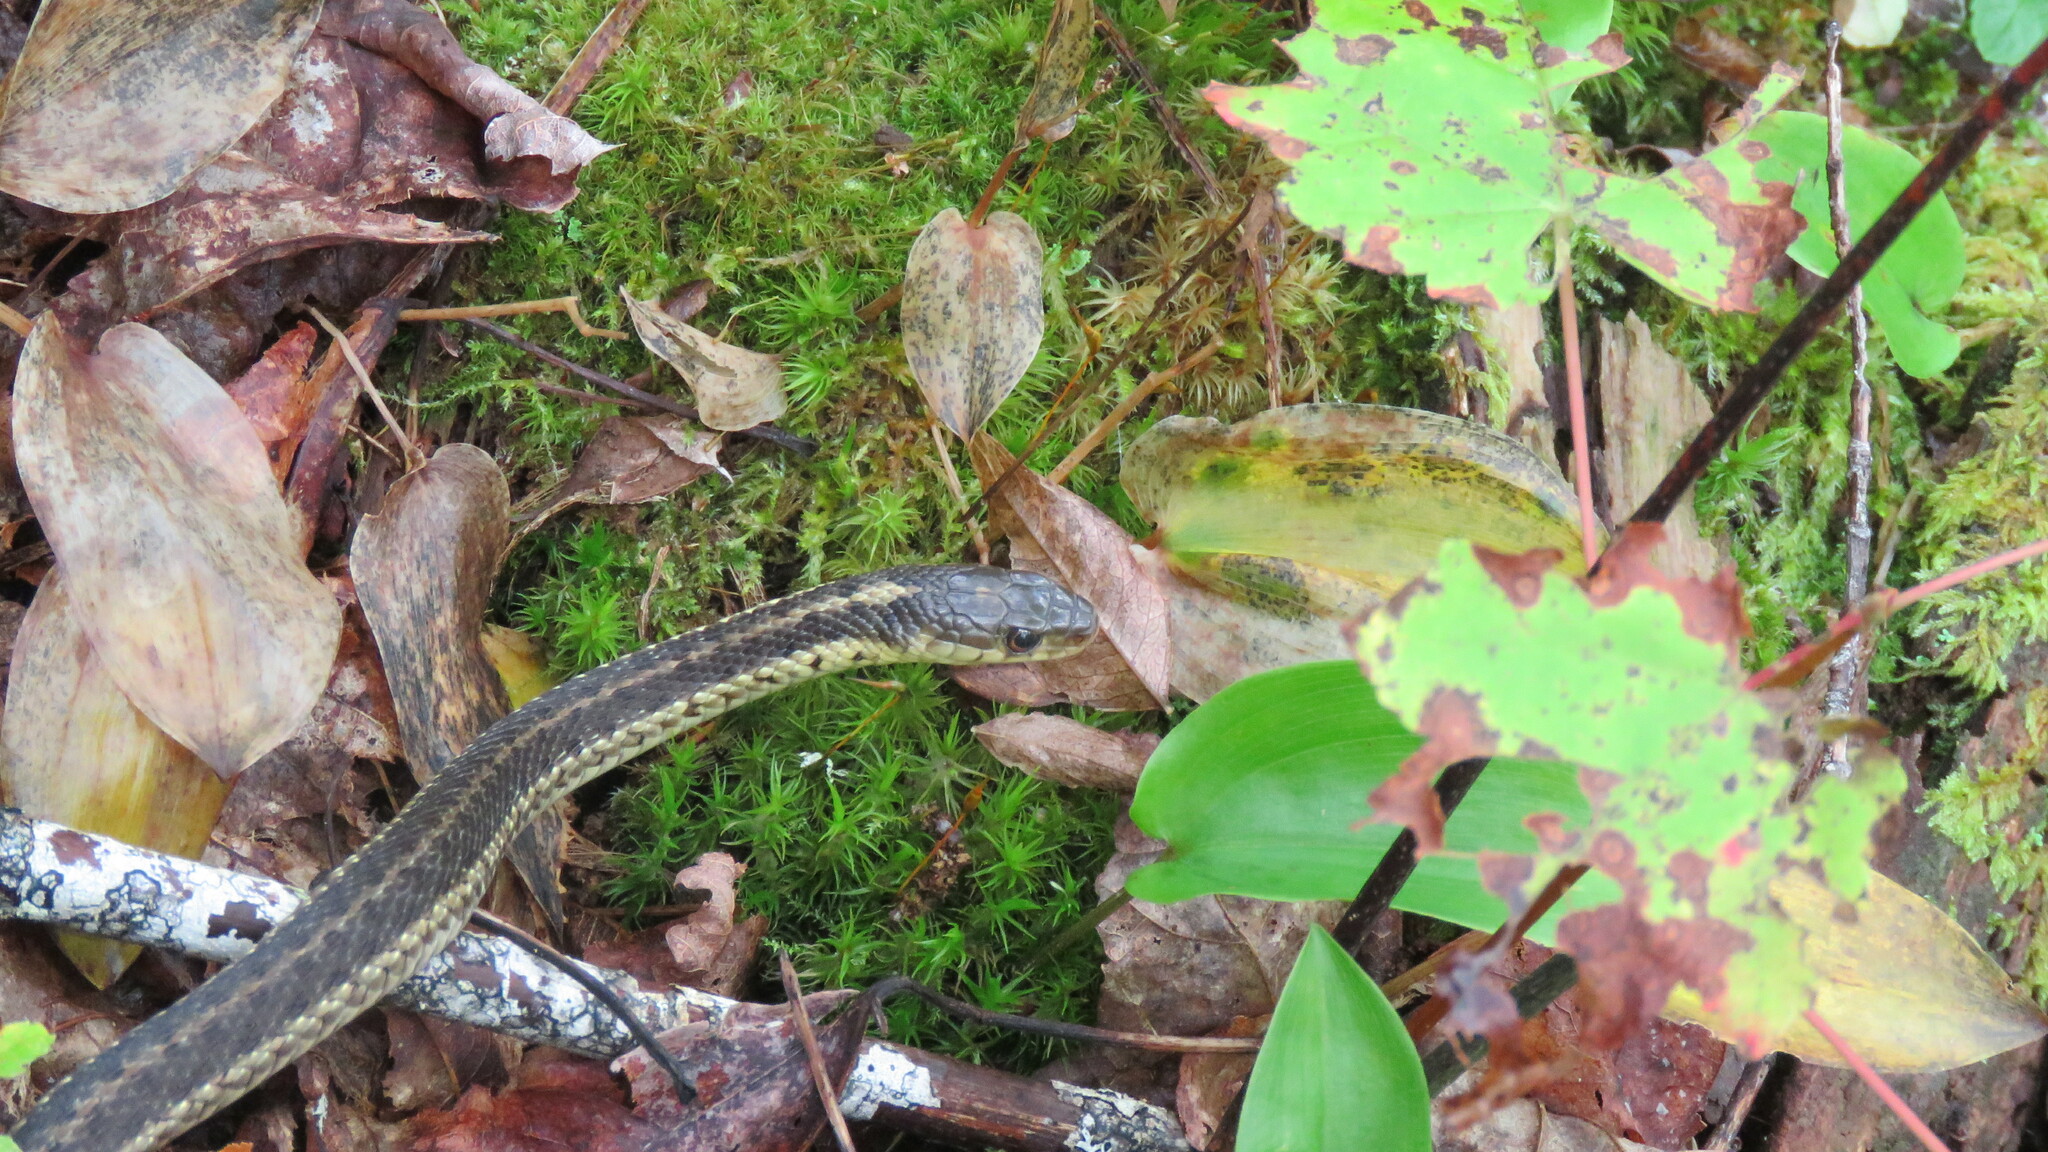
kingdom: Animalia
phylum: Chordata
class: Squamata
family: Colubridae
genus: Thamnophis
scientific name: Thamnophis sirtalis
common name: Common garter snake
